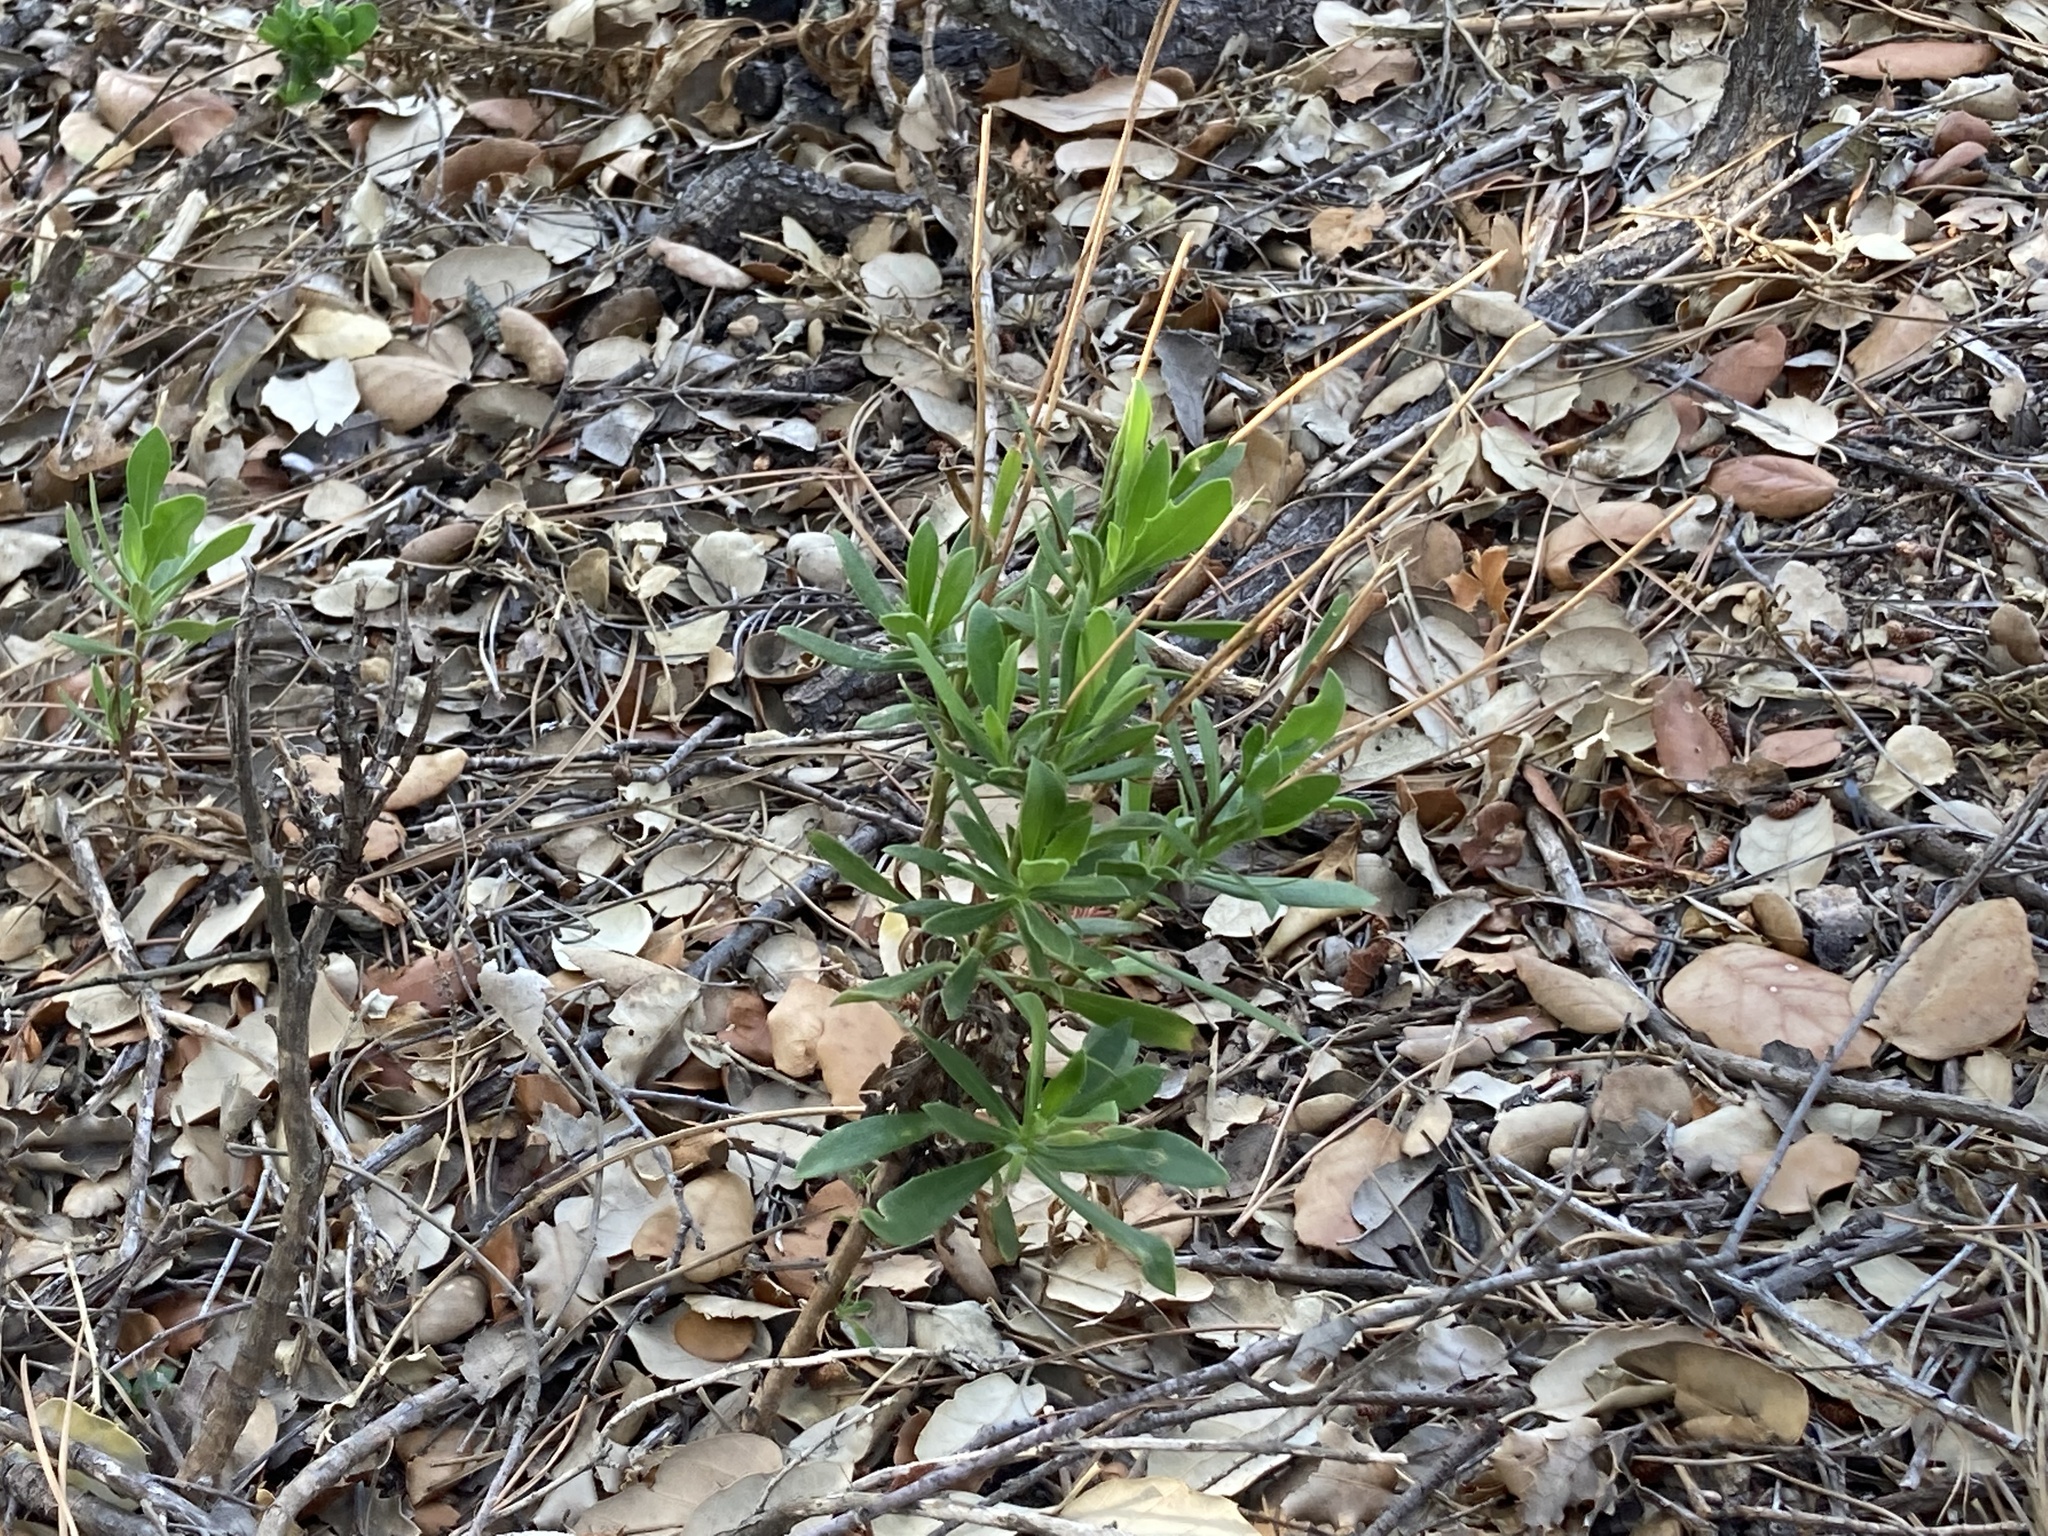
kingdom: Plantae
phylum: Tracheophyta
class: Magnoliopsida
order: Asterales
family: Asteraceae
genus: Dimorphotheca
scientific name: Dimorphotheca ecklonis
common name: Vanstaden's river daisy
